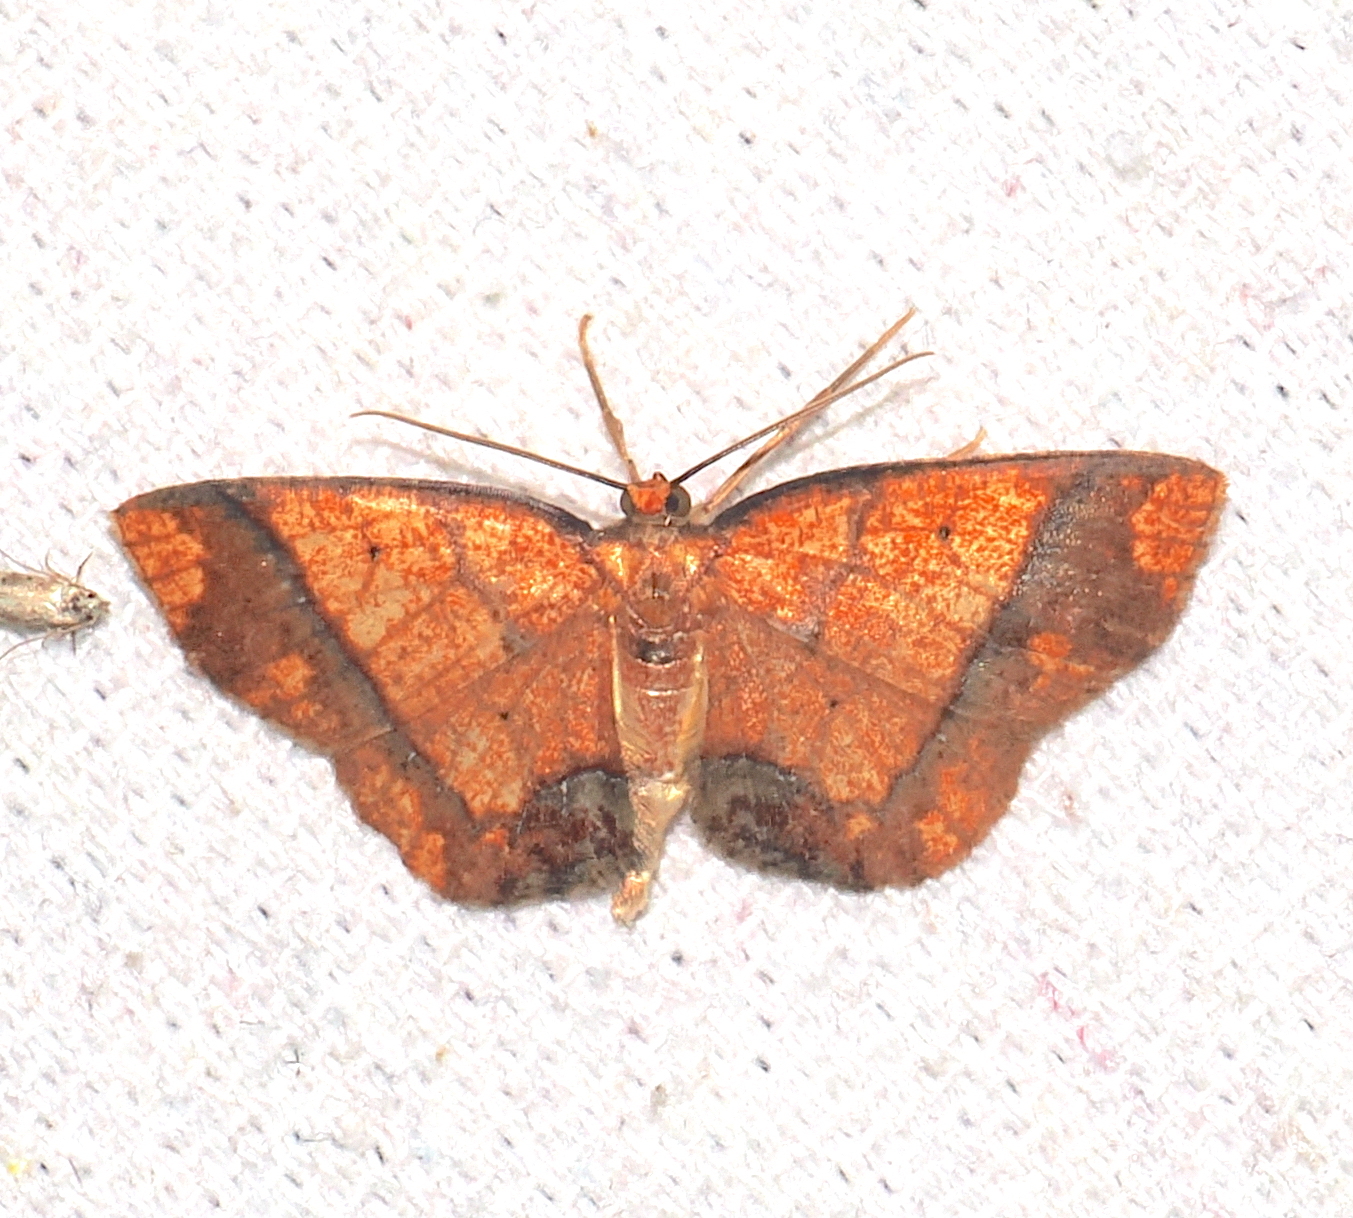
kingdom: Animalia
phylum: Arthropoda
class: Insecta
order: Lepidoptera
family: Geometridae
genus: Melinoides
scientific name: Melinoides detersaria
